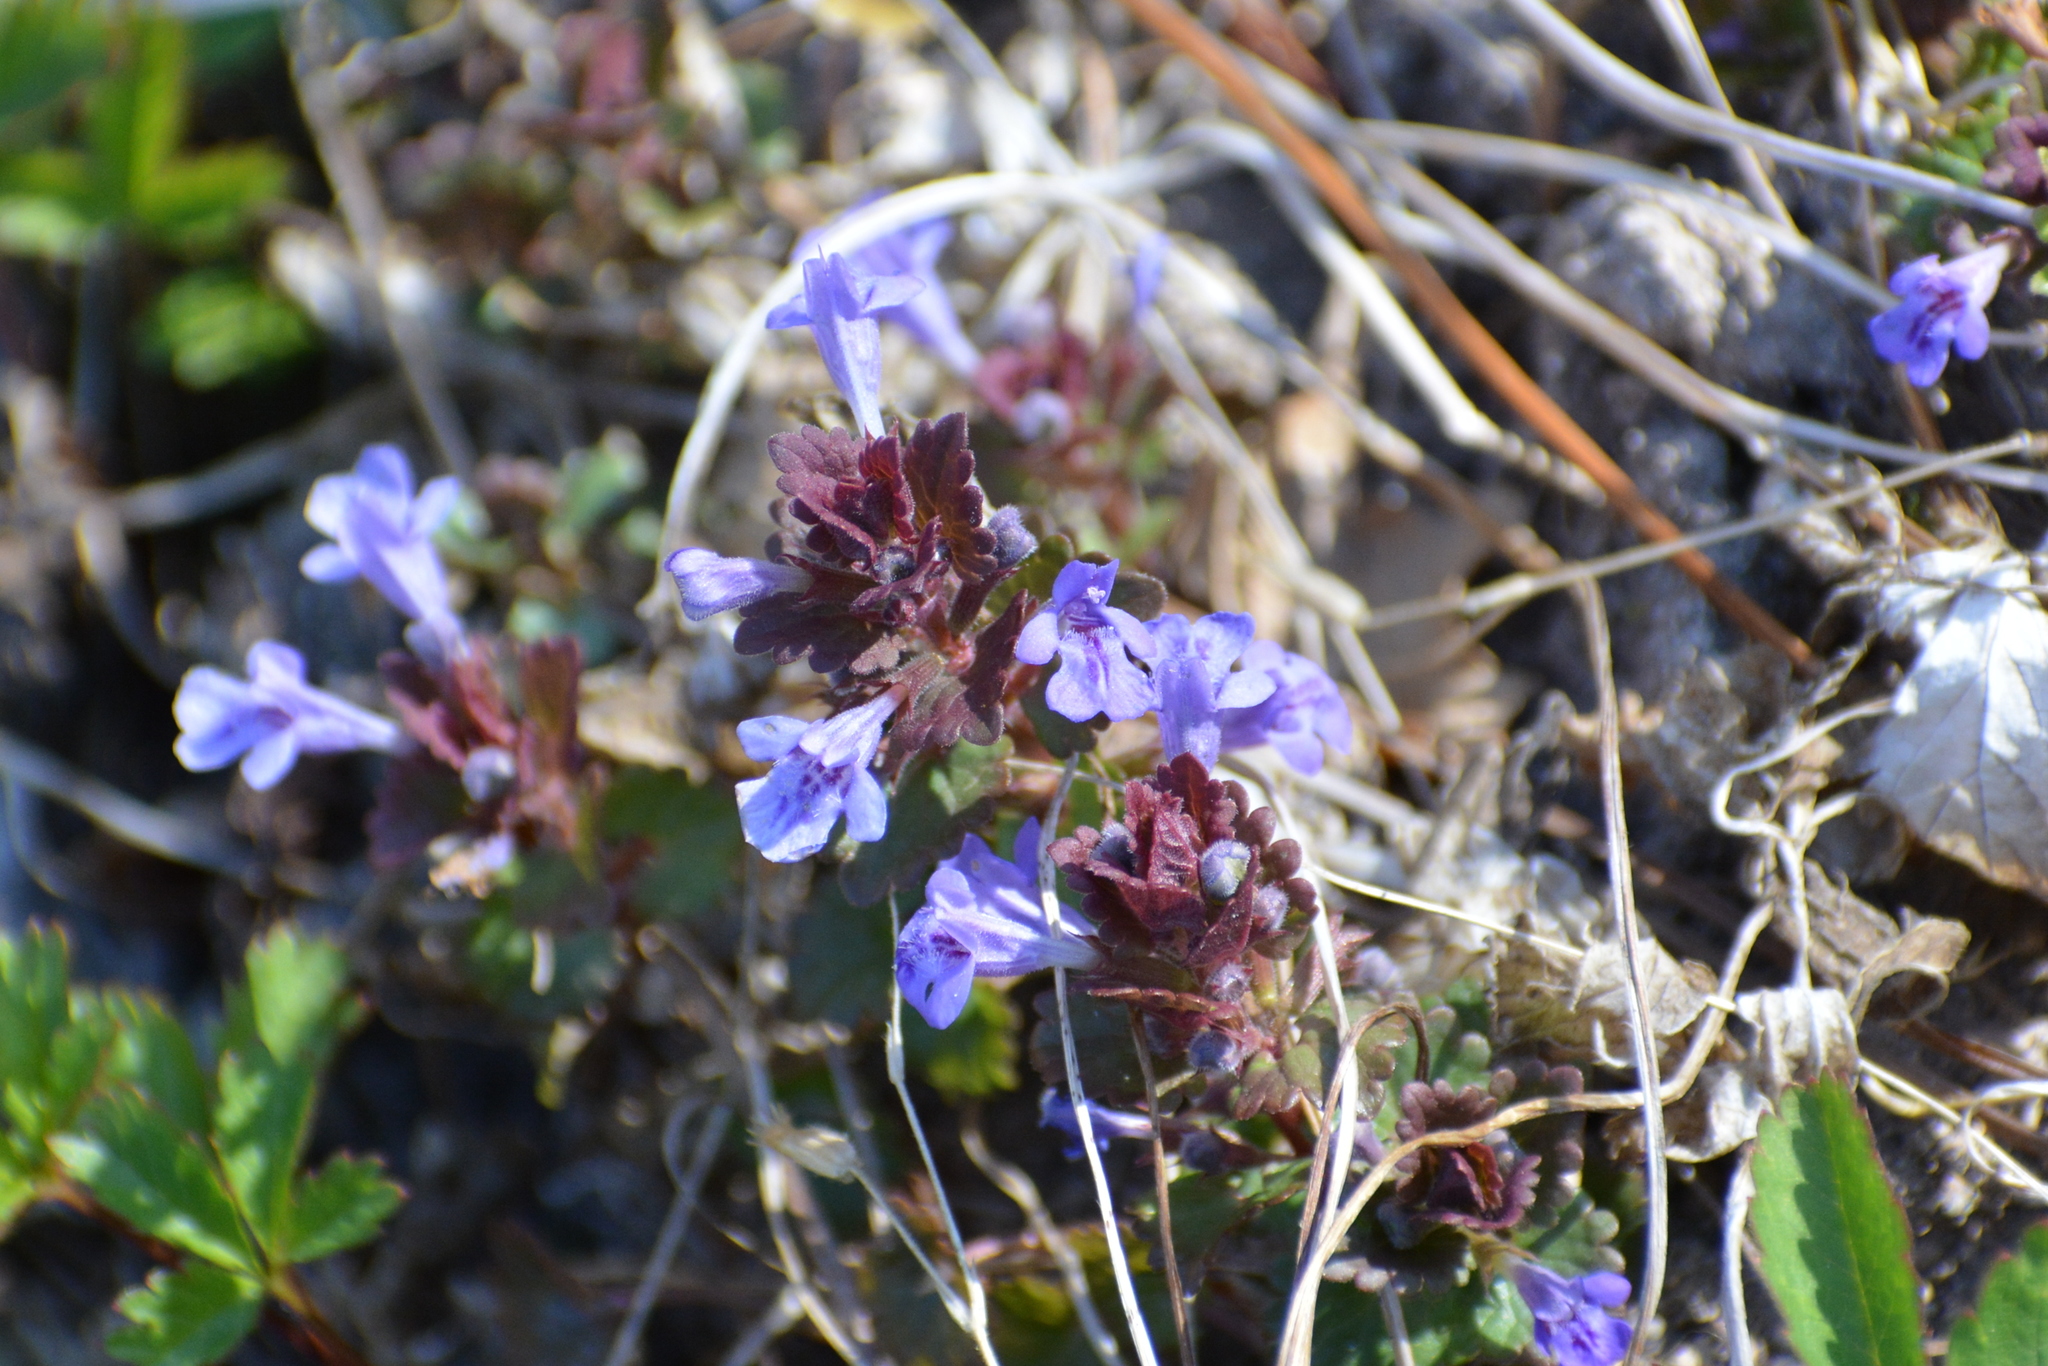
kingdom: Plantae
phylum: Tracheophyta
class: Magnoliopsida
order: Lamiales
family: Lamiaceae
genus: Glechoma
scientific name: Glechoma hederacea
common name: Ground ivy
